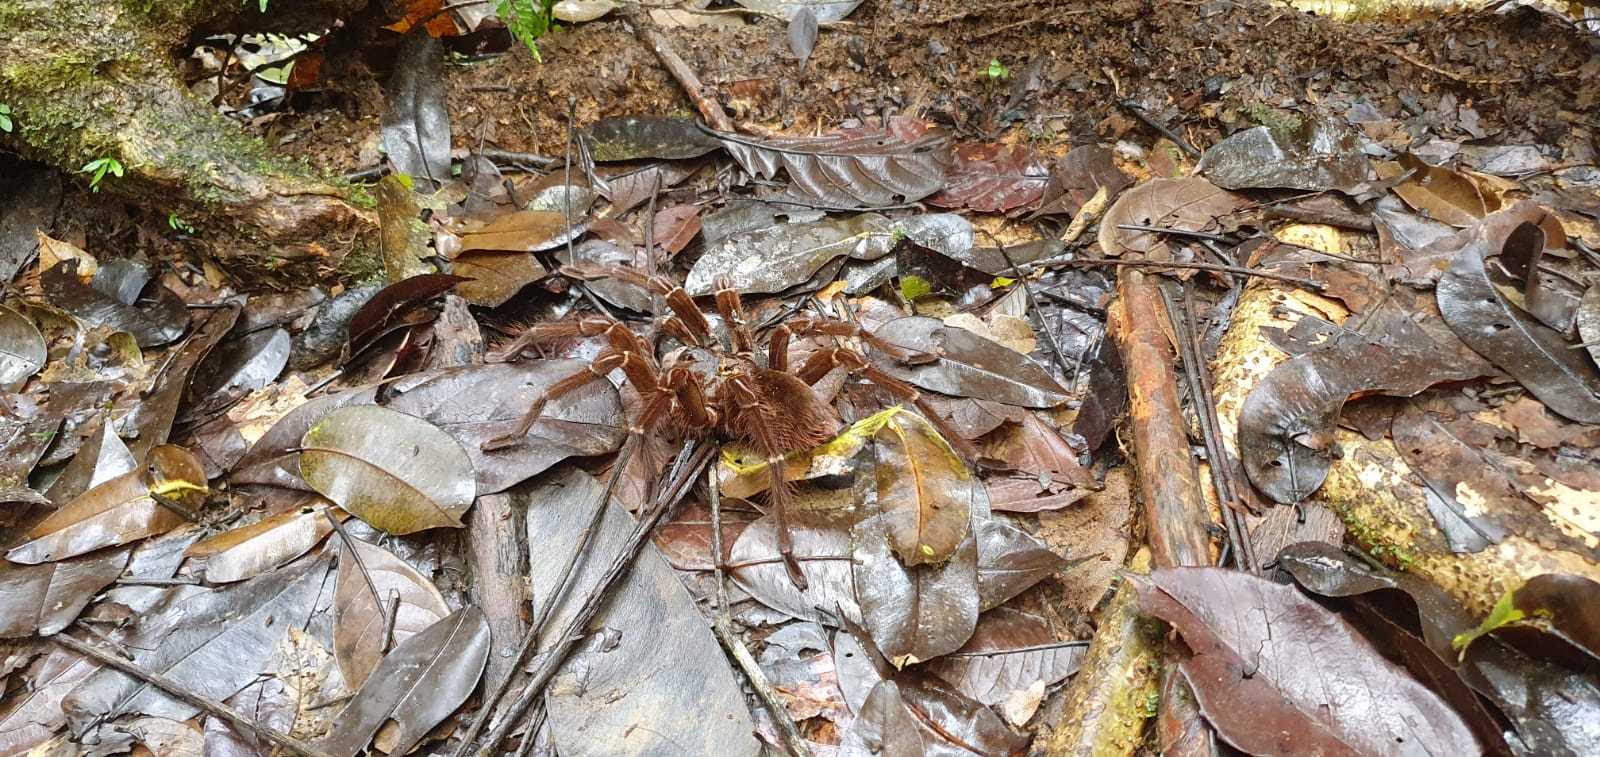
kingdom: Animalia
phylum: Arthropoda
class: Arachnida
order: Araneae
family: Theraphosidae
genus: Theraphosa
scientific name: Theraphosa blondi
